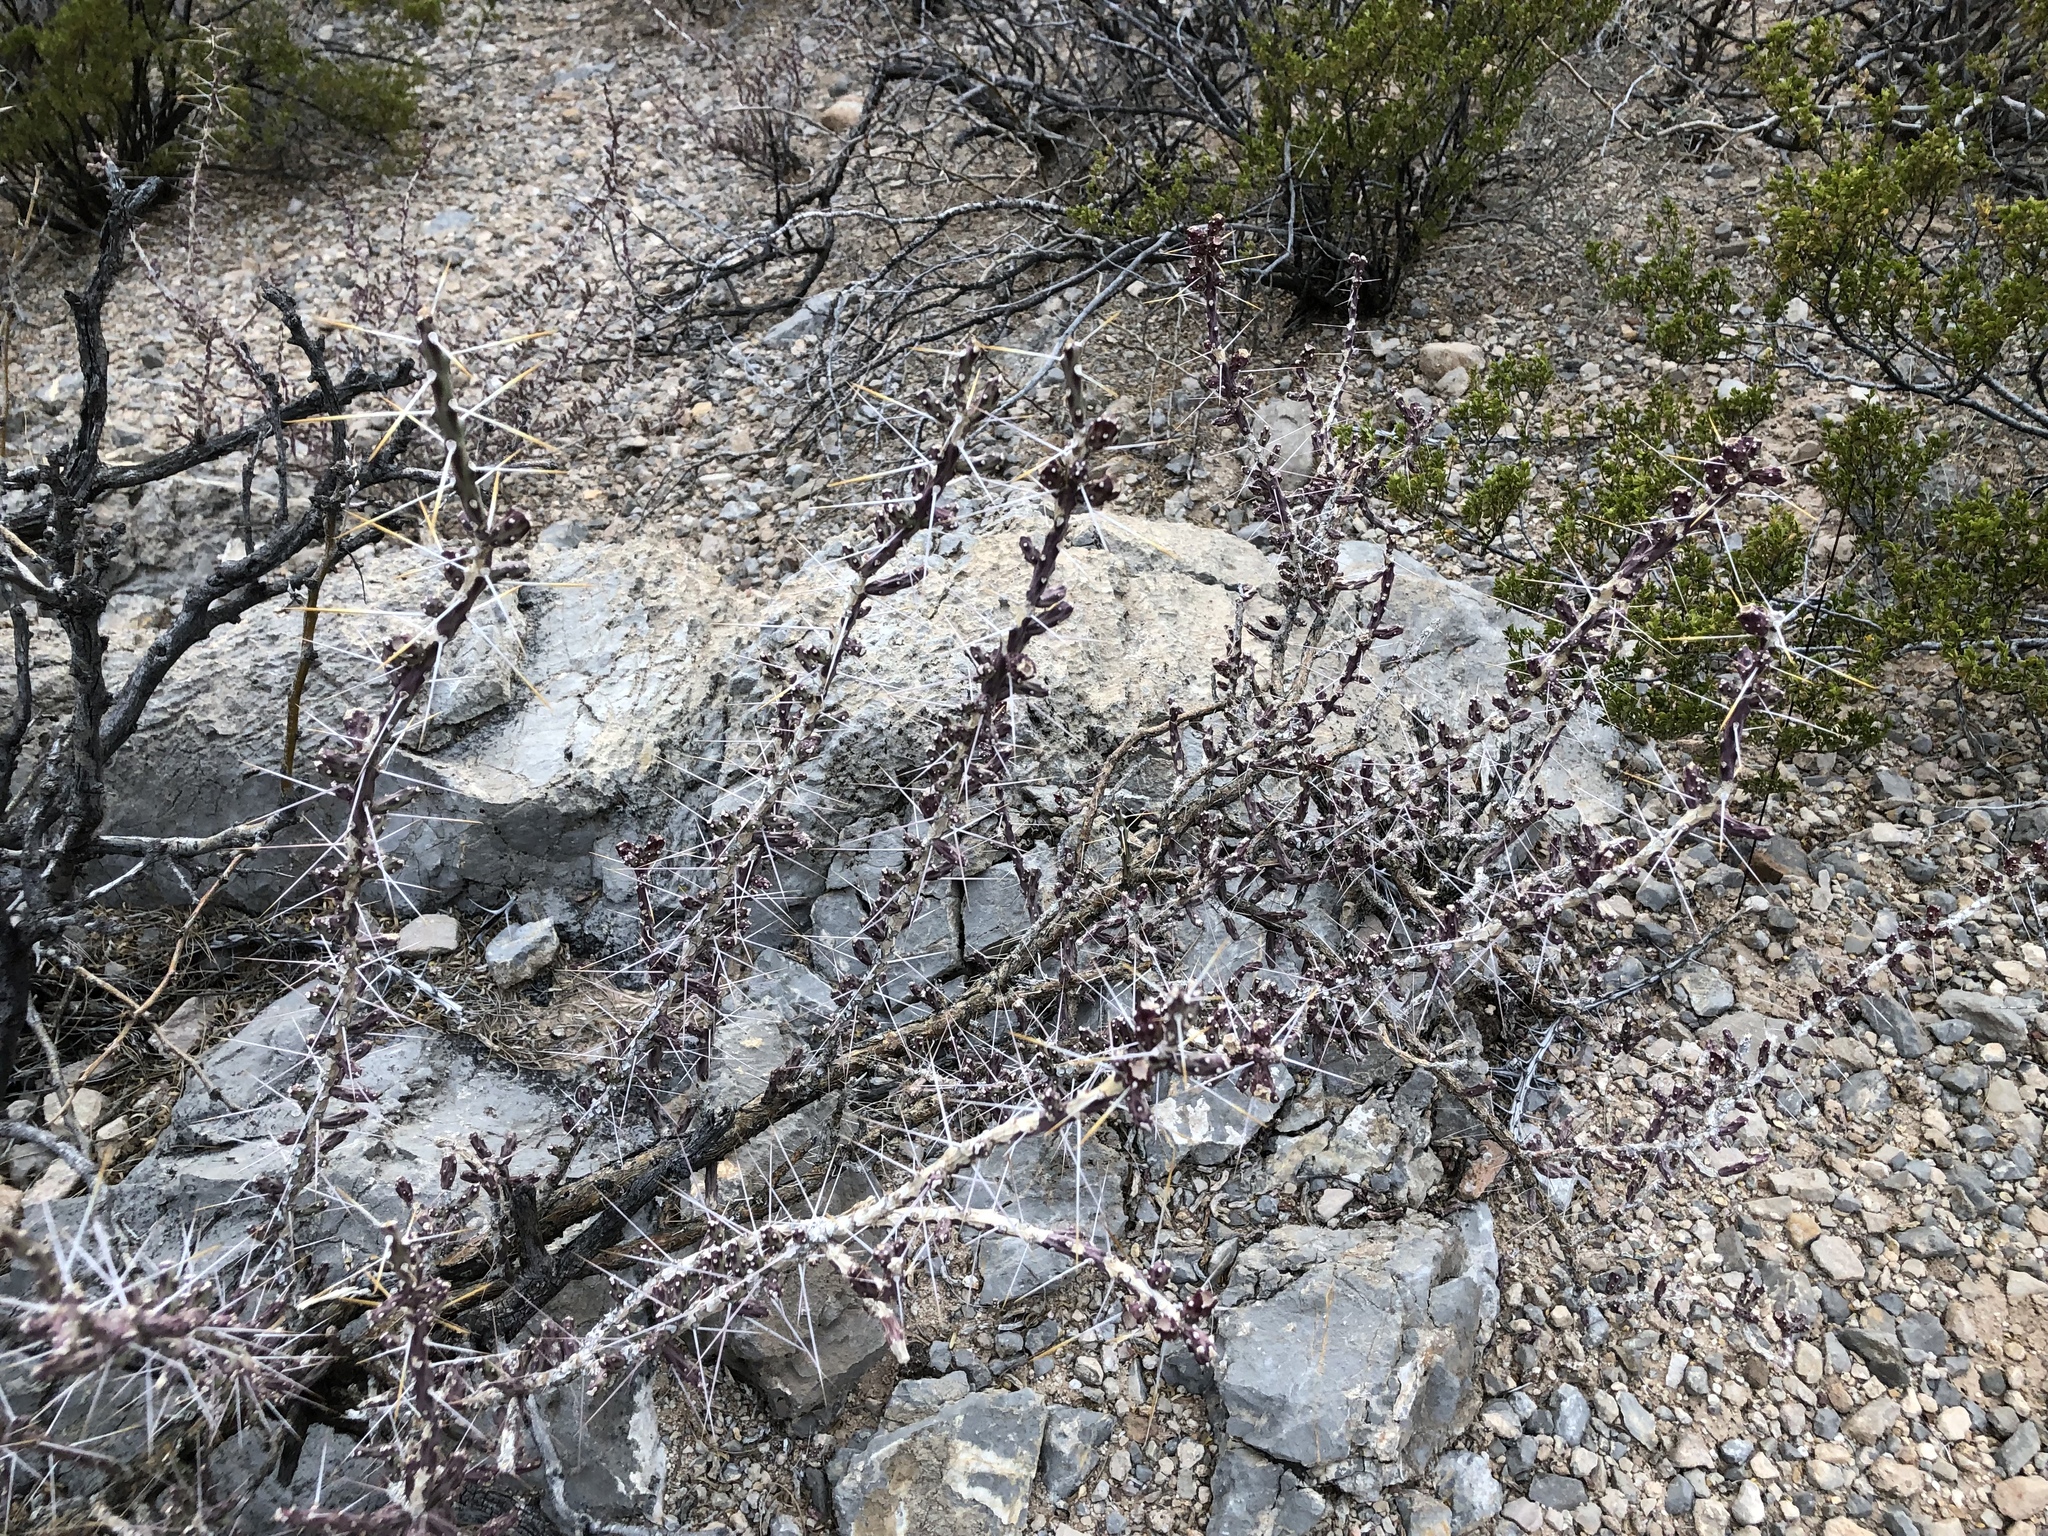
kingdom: Plantae
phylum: Tracheophyta
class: Magnoliopsida
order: Caryophyllales
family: Cactaceae
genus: Cylindropuntia
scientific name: Cylindropuntia leptocaulis
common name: Christmas cactus
